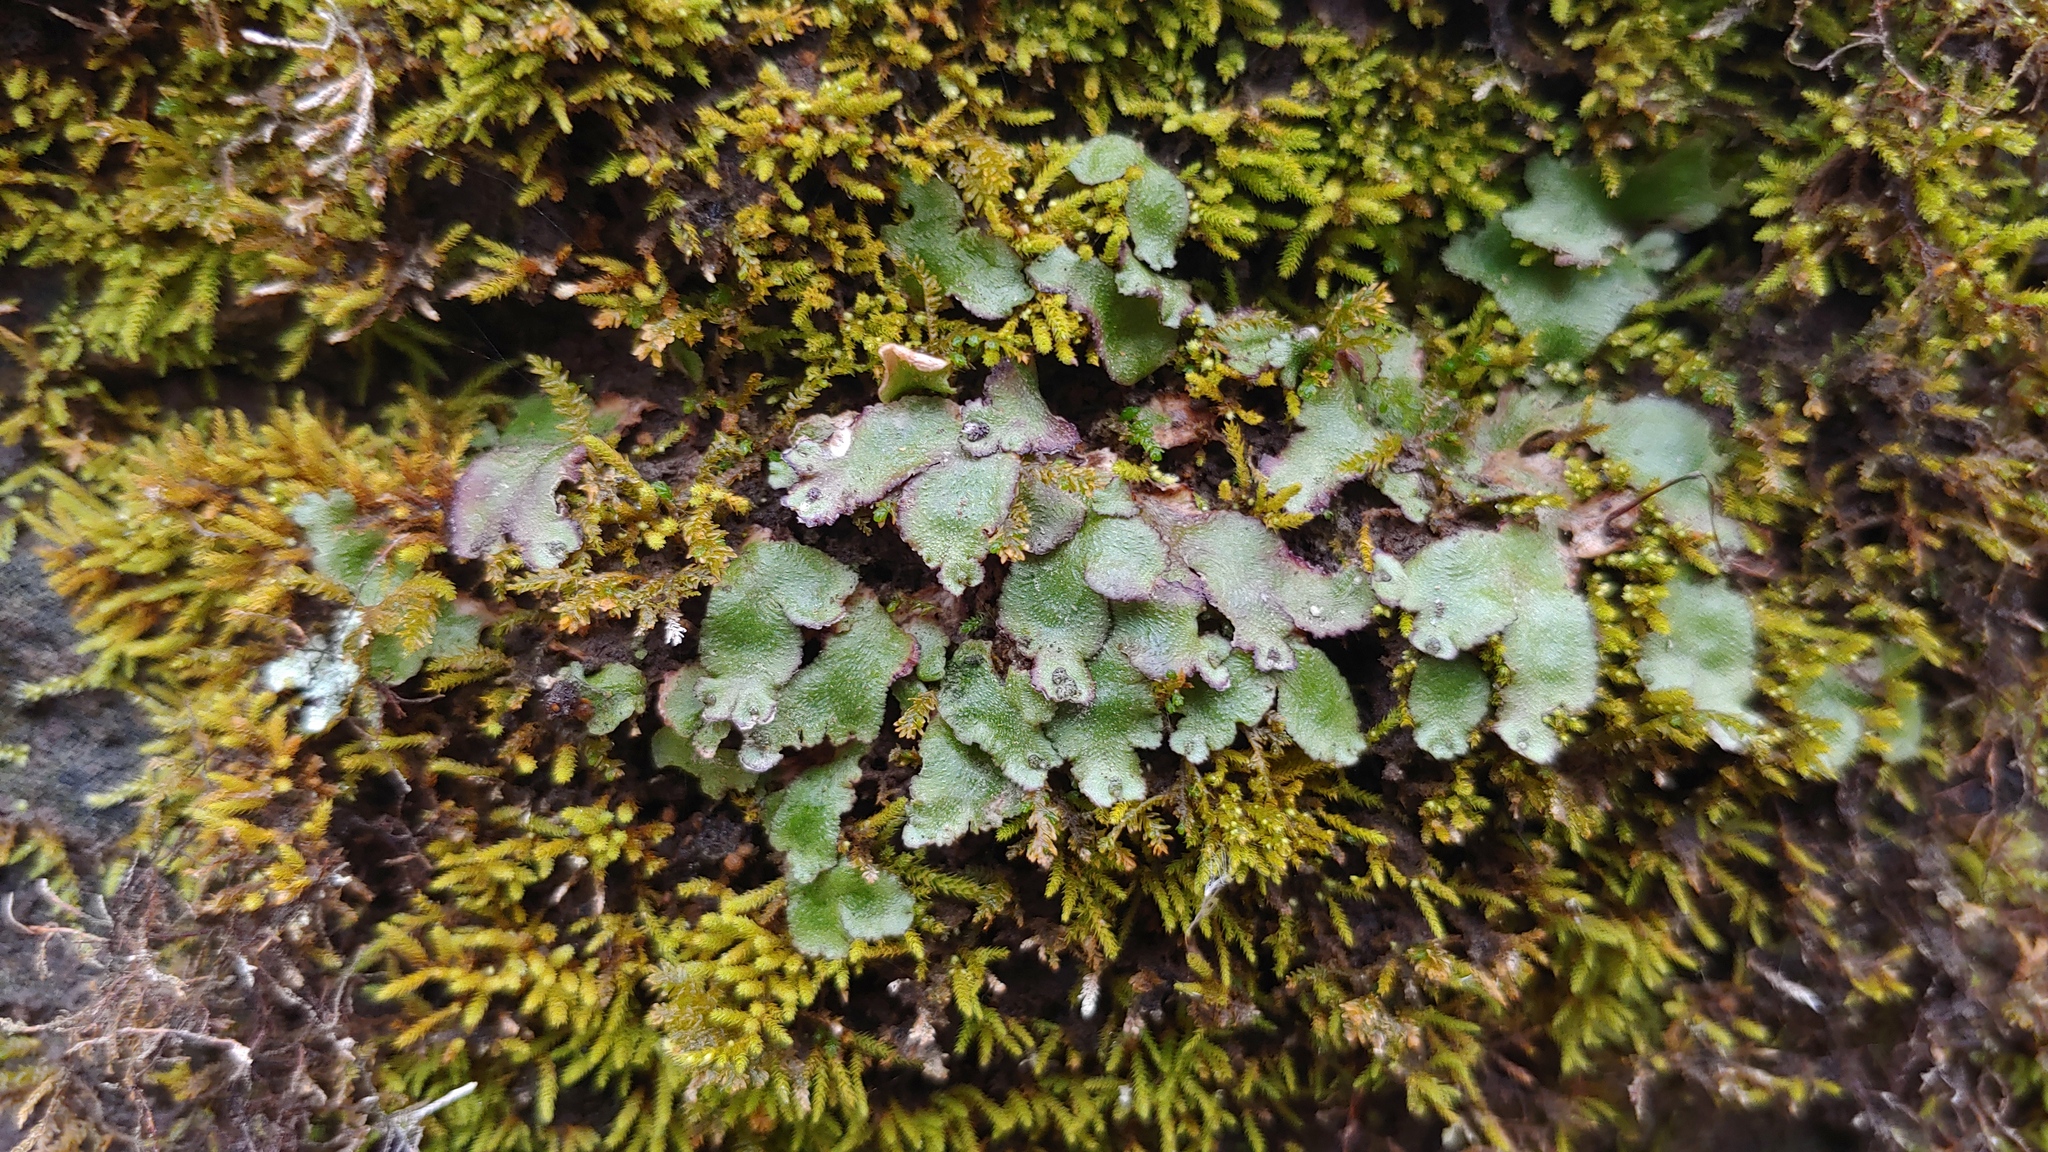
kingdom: Plantae
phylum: Marchantiophyta
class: Marchantiopsida
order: Marchantiales
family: Aytoniaceae
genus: Reboulia
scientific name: Reboulia hemisphaerica
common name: Purple-margined liverwort
